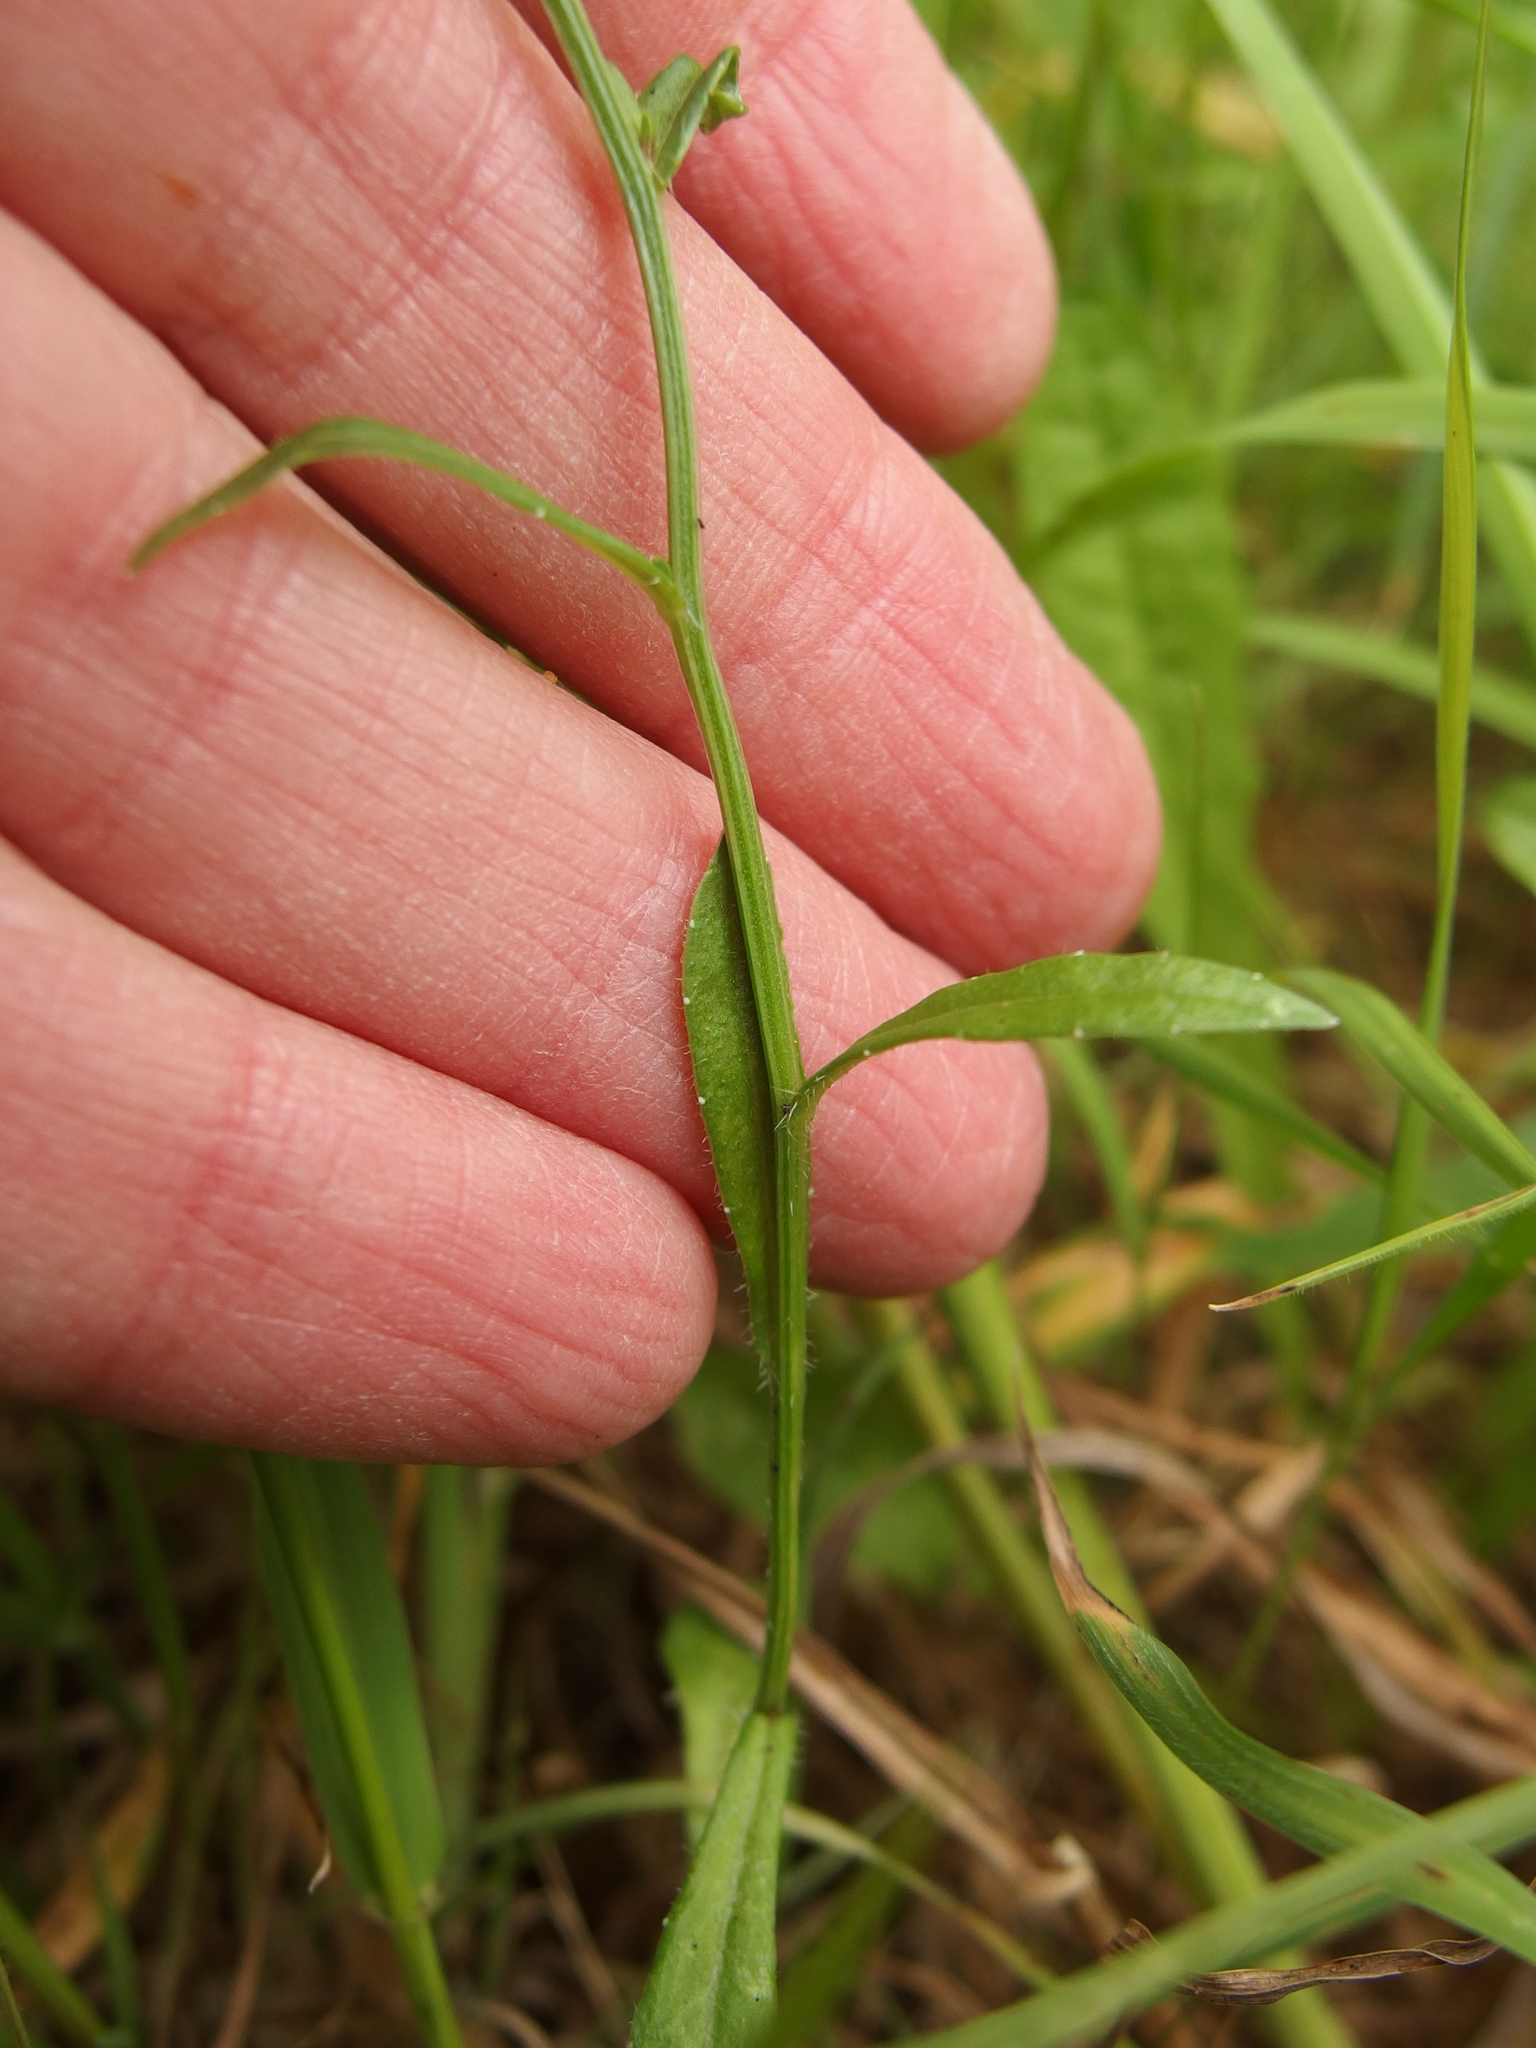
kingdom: Plantae
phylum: Tracheophyta
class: Magnoliopsida
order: Asterales
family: Campanulaceae
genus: Wahlenbergia
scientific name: Wahlenbergia albomarginata
